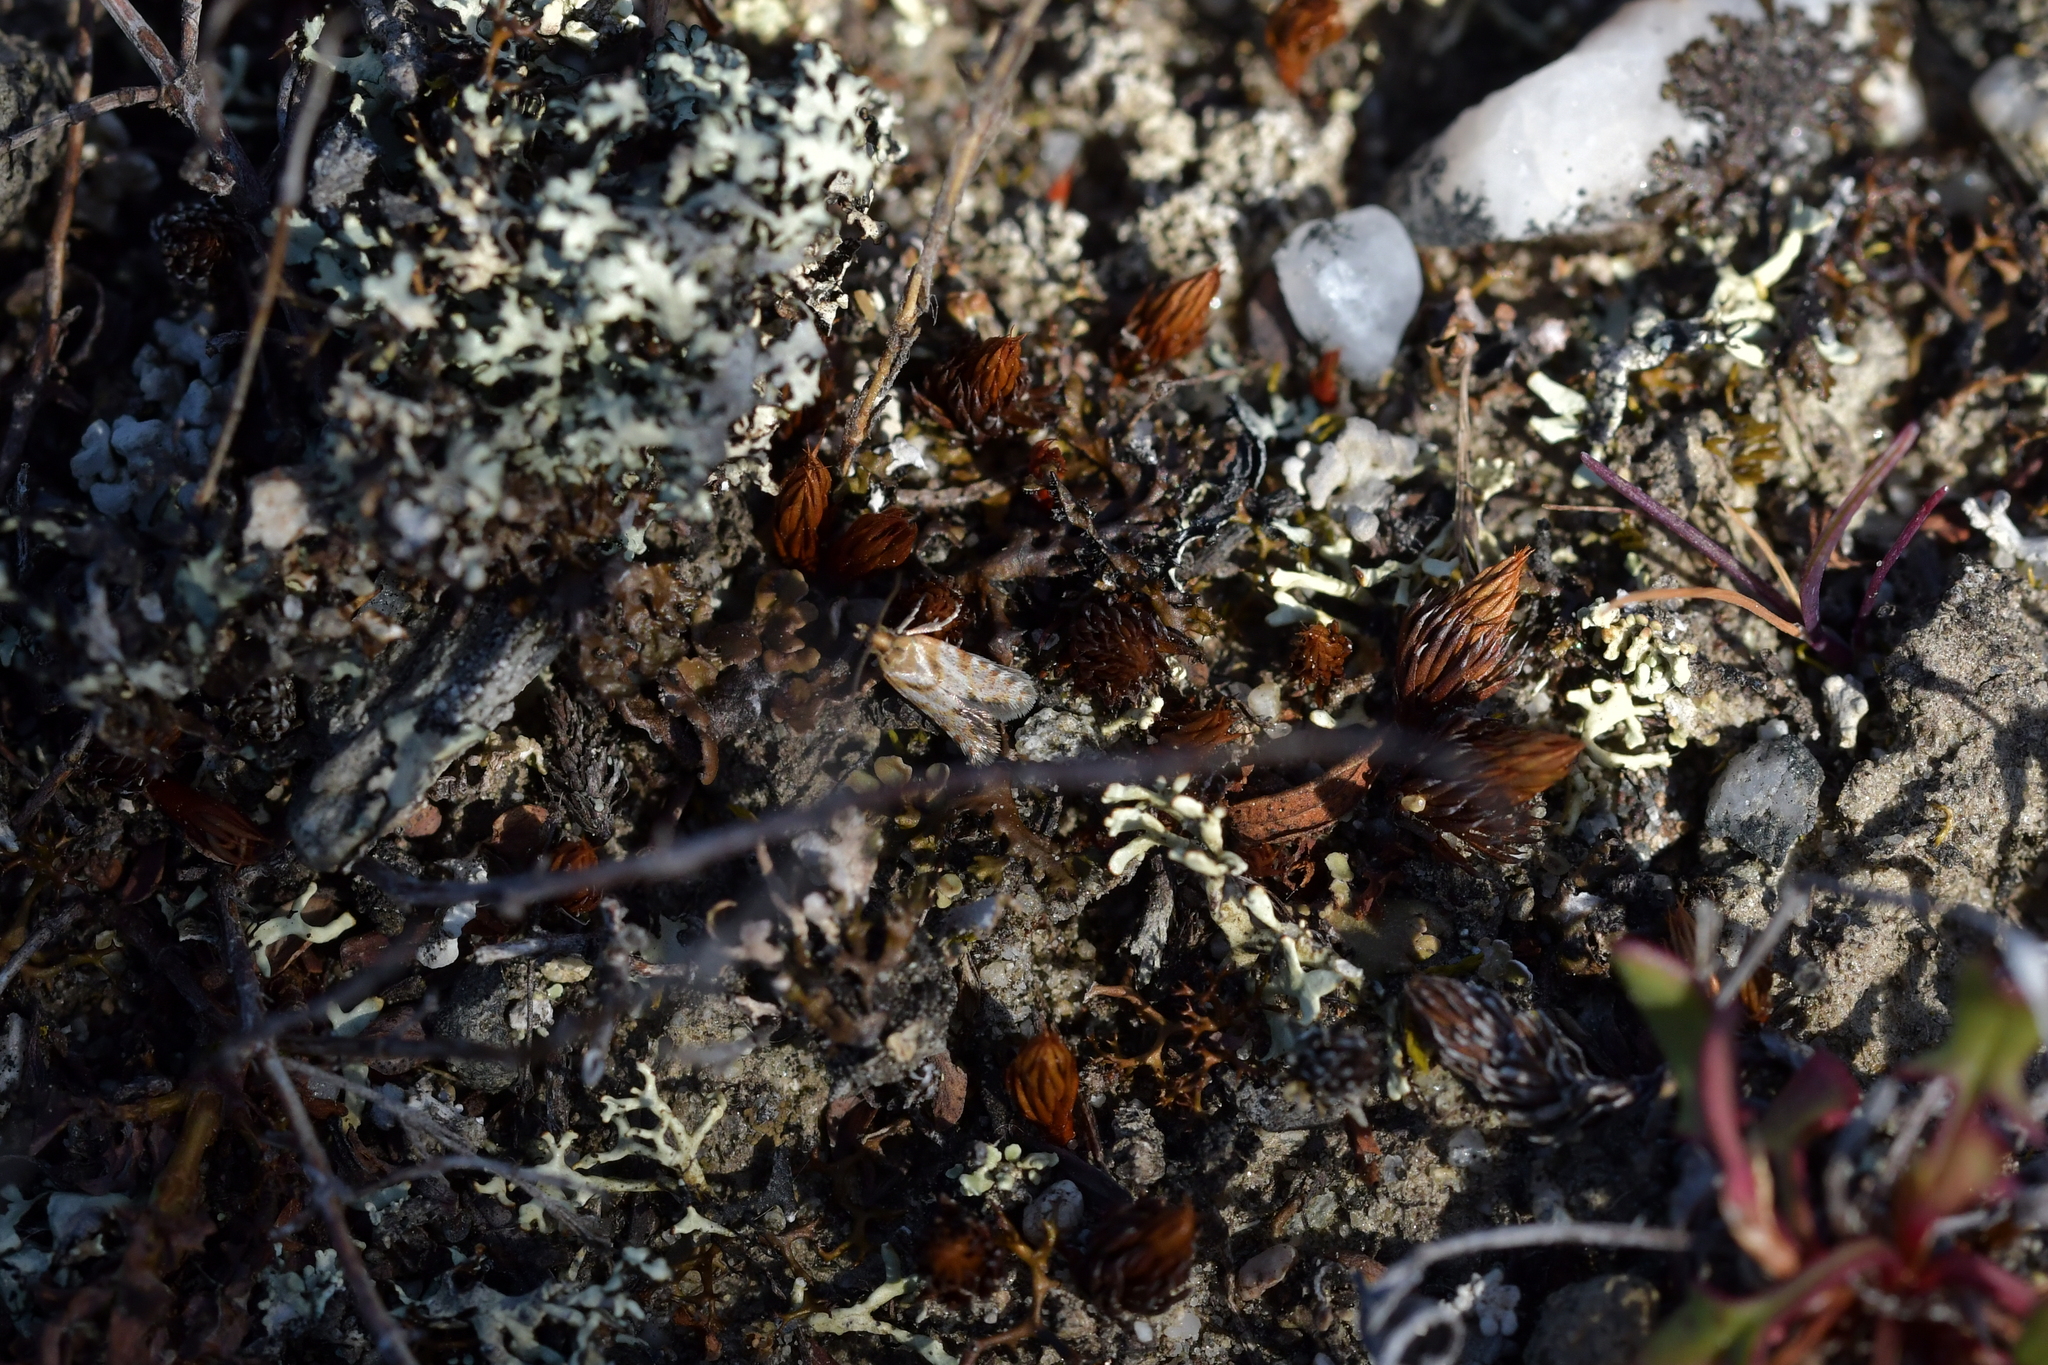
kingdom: Animalia
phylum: Arthropoda
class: Insecta
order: Lepidoptera
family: Tortricidae
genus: Eurythecta
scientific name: Eurythecta zelaea
